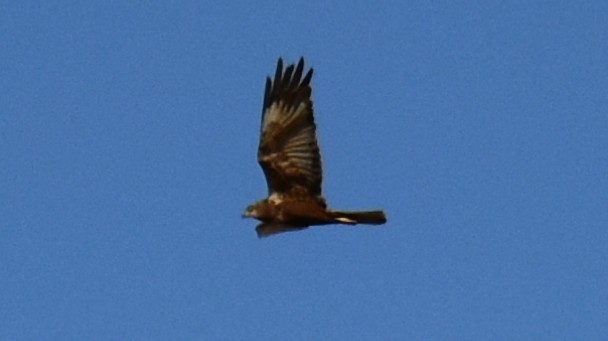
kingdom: Animalia
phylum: Chordata
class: Aves
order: Accipitriformes
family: Accipitridae
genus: Circus
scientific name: Circus aeruginosus
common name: Western marsh harrier
